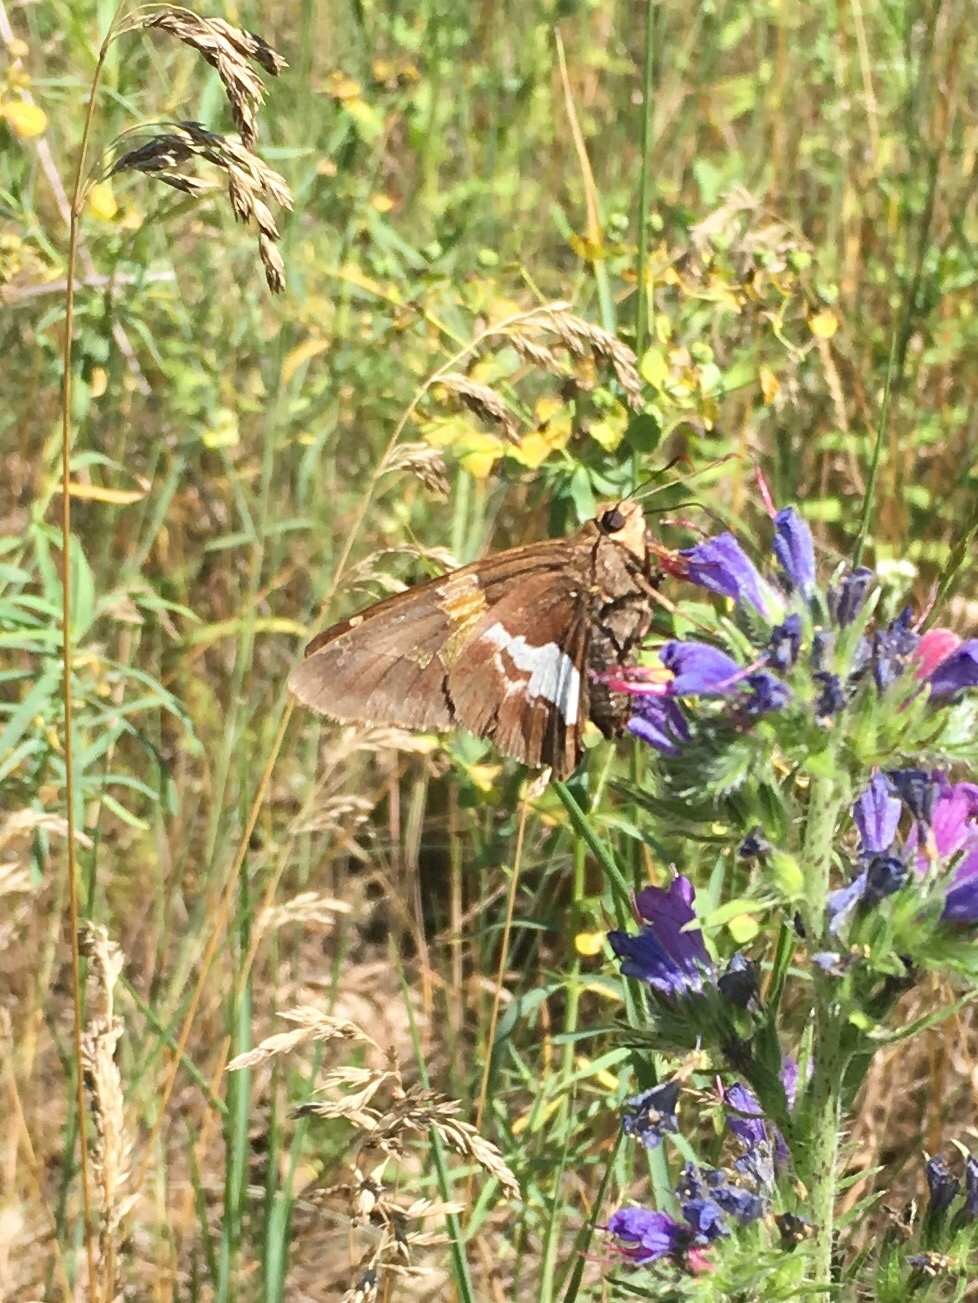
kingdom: Animalia
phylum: Arthropoda
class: Insecta
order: Lepidoptera
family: Hesperiidae
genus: Epargyreus
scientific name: Epargyreus clarus
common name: Silver-spotted skipper
